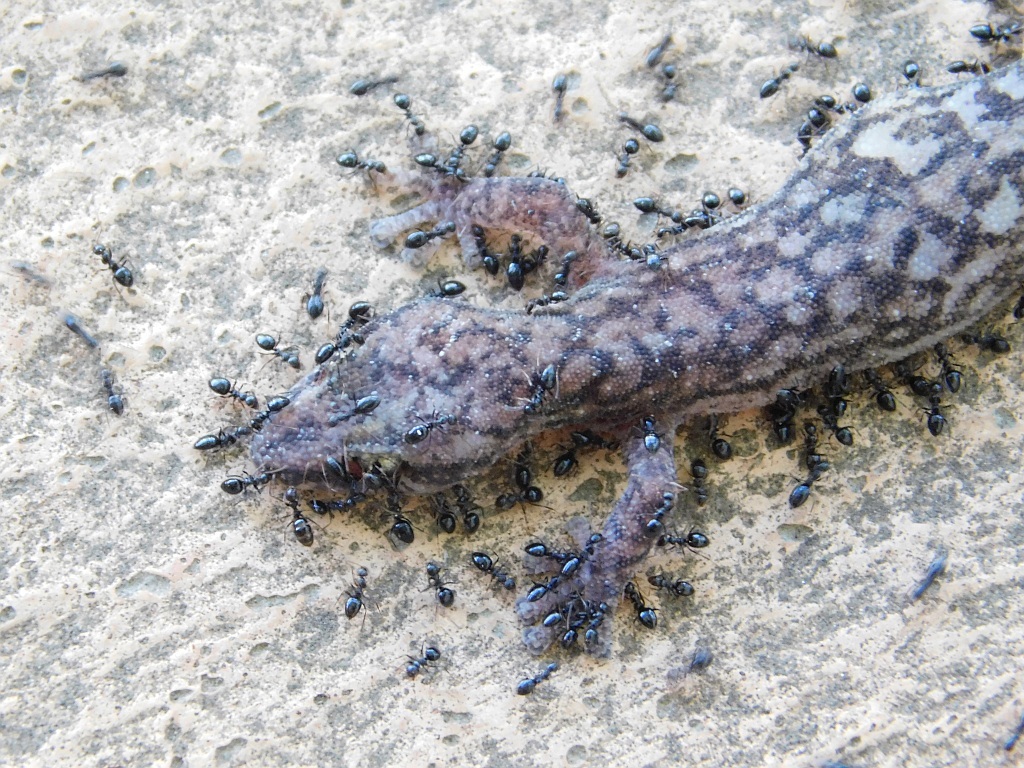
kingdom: Animalia
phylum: Chordata
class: Squamata
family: Gekkonidae
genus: Afrogecko
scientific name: Afrogecko porphyreus
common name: Marbled leaf-toed gecko
